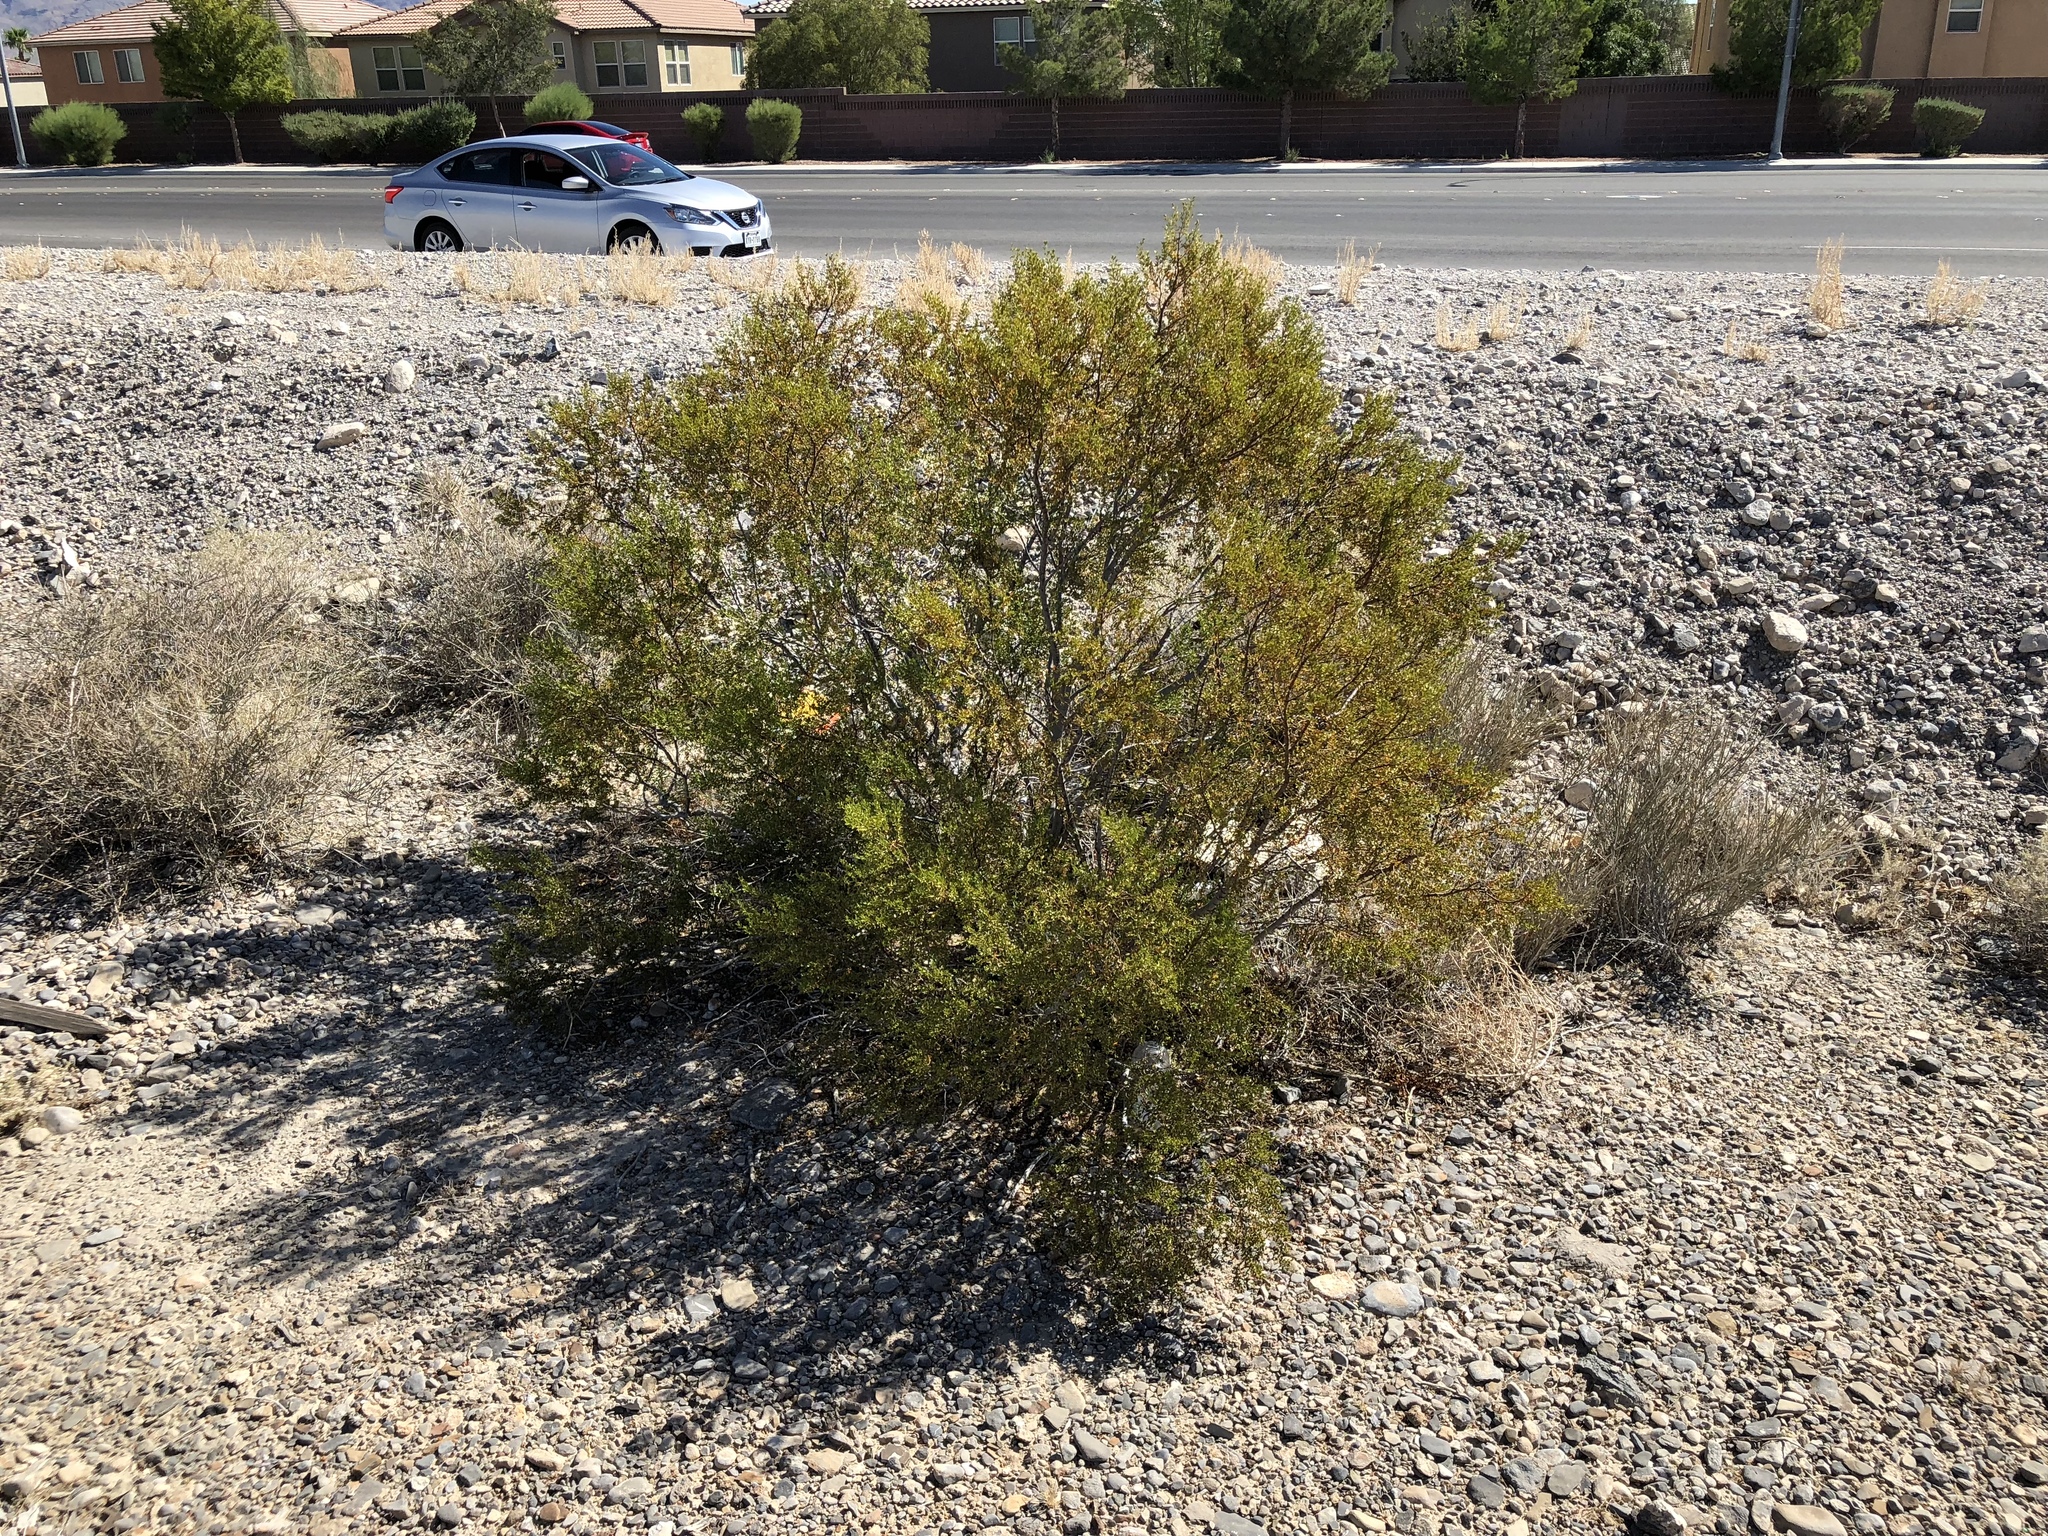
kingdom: Plantae
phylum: Tracheophyta
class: Magnoliopsida
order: Zygophyllales
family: Zygophyllaceae
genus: Larrea
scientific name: Larrea tridentata
